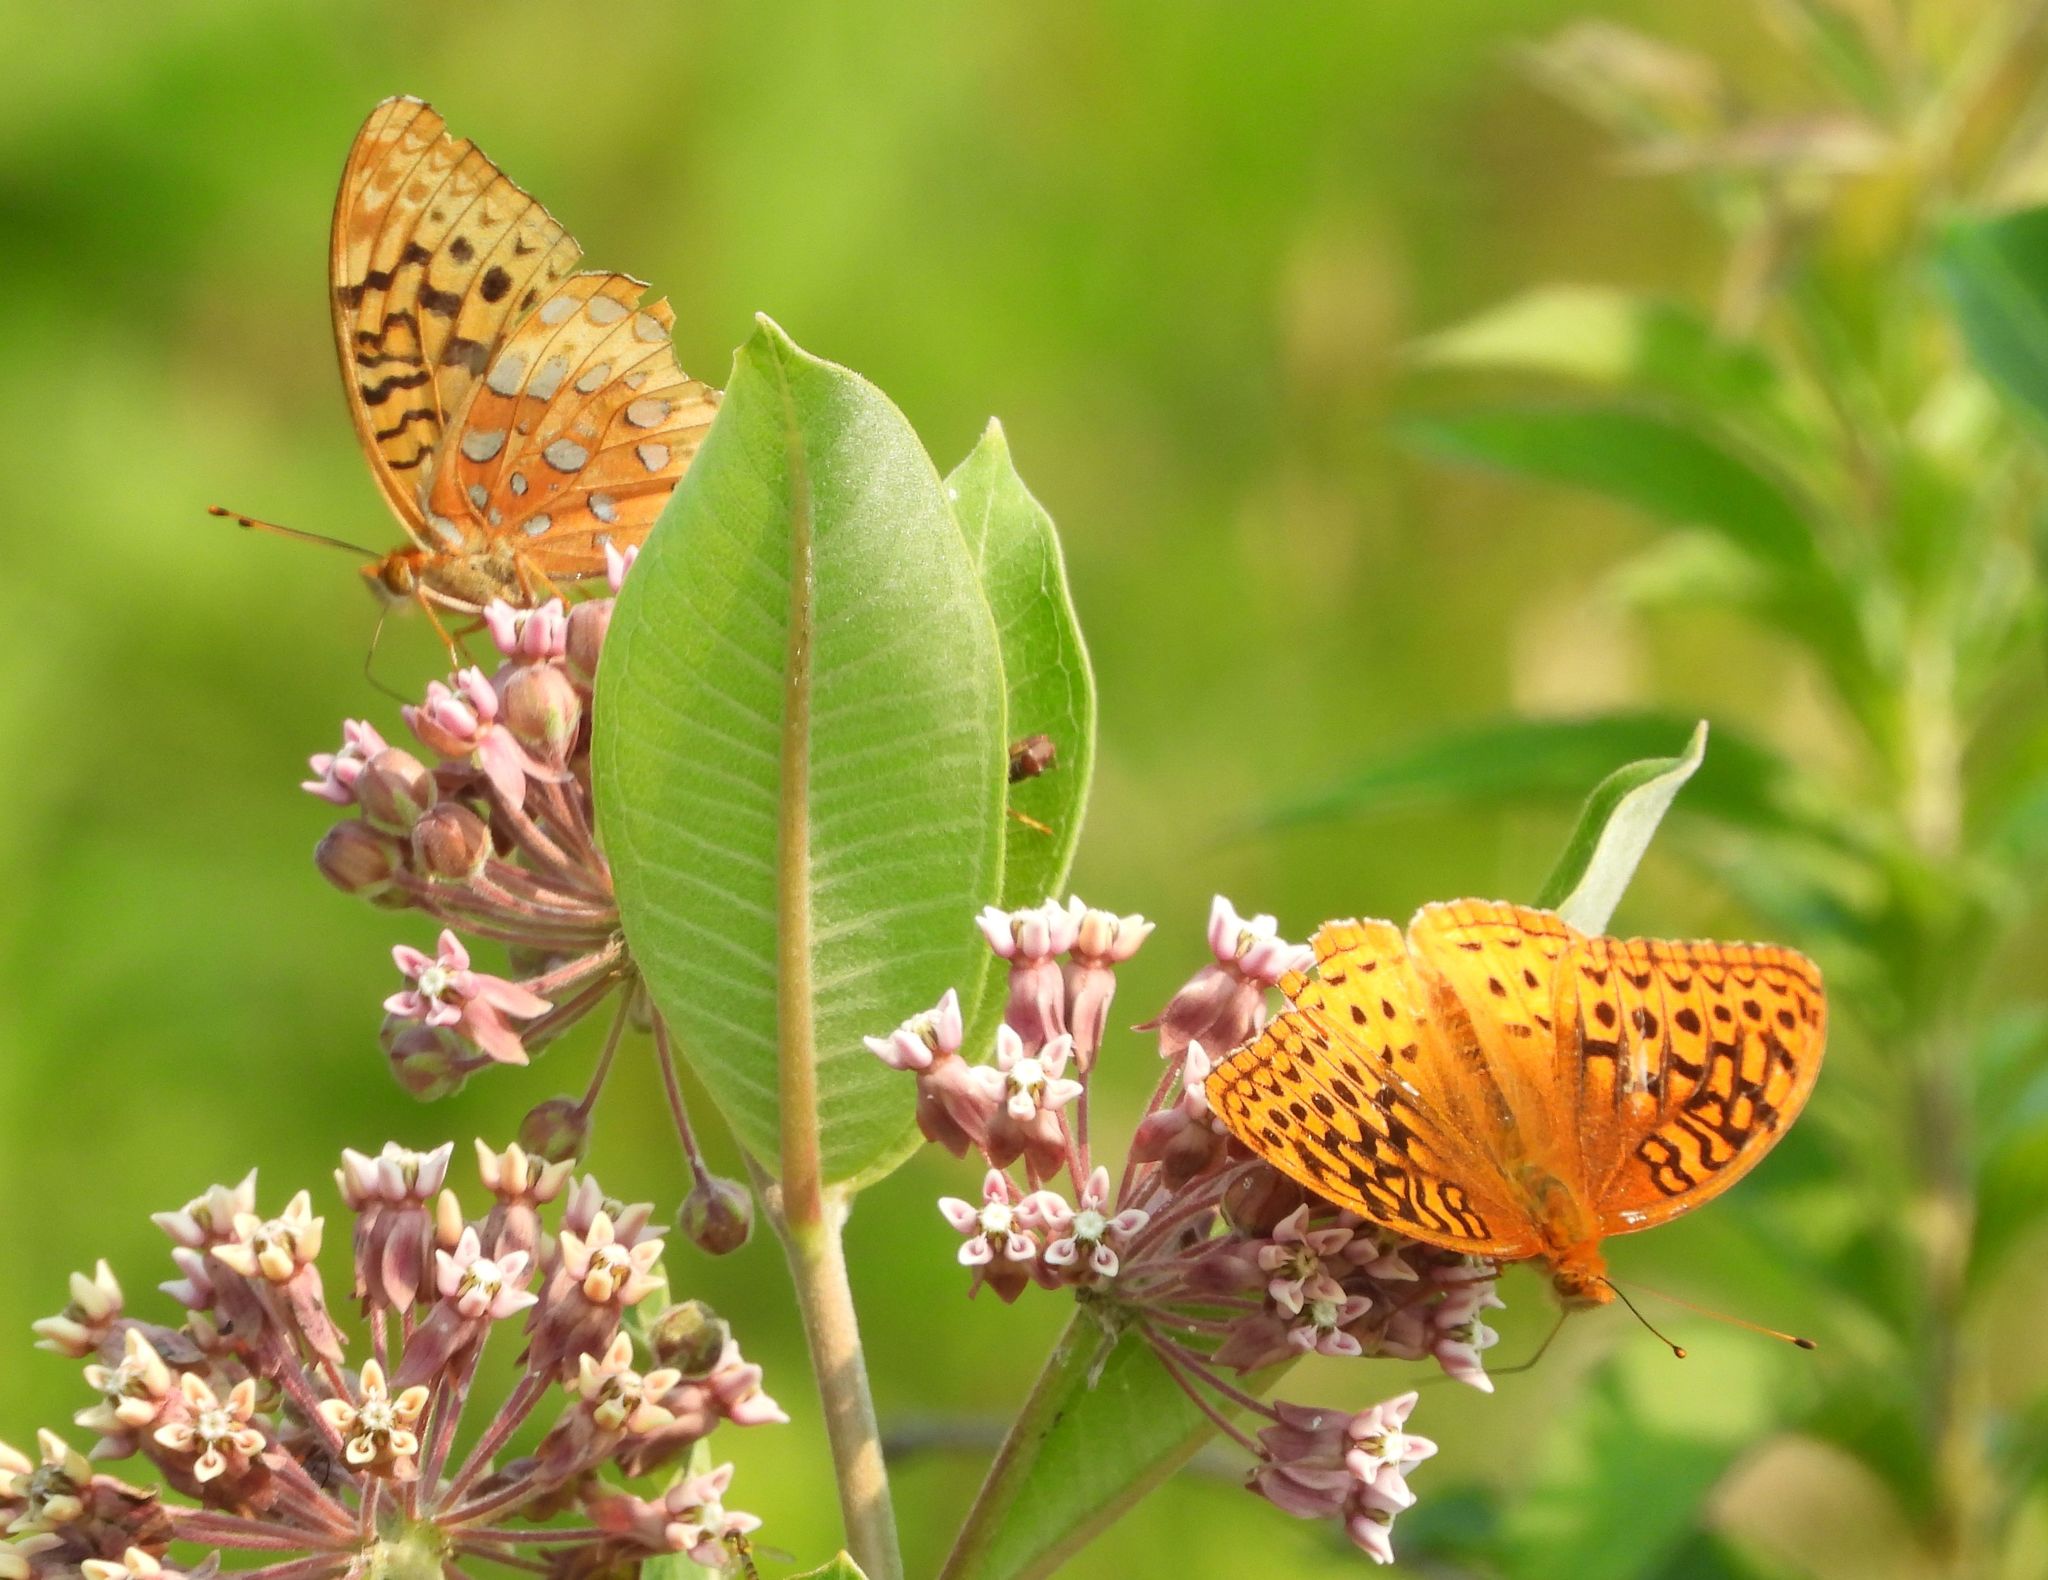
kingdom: Animalia
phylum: Arthropoda
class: Insecta
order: Lepidoptera
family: Nymphalidae
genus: Speyeria
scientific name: Speyeria cybele
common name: Great spangled fritillary
